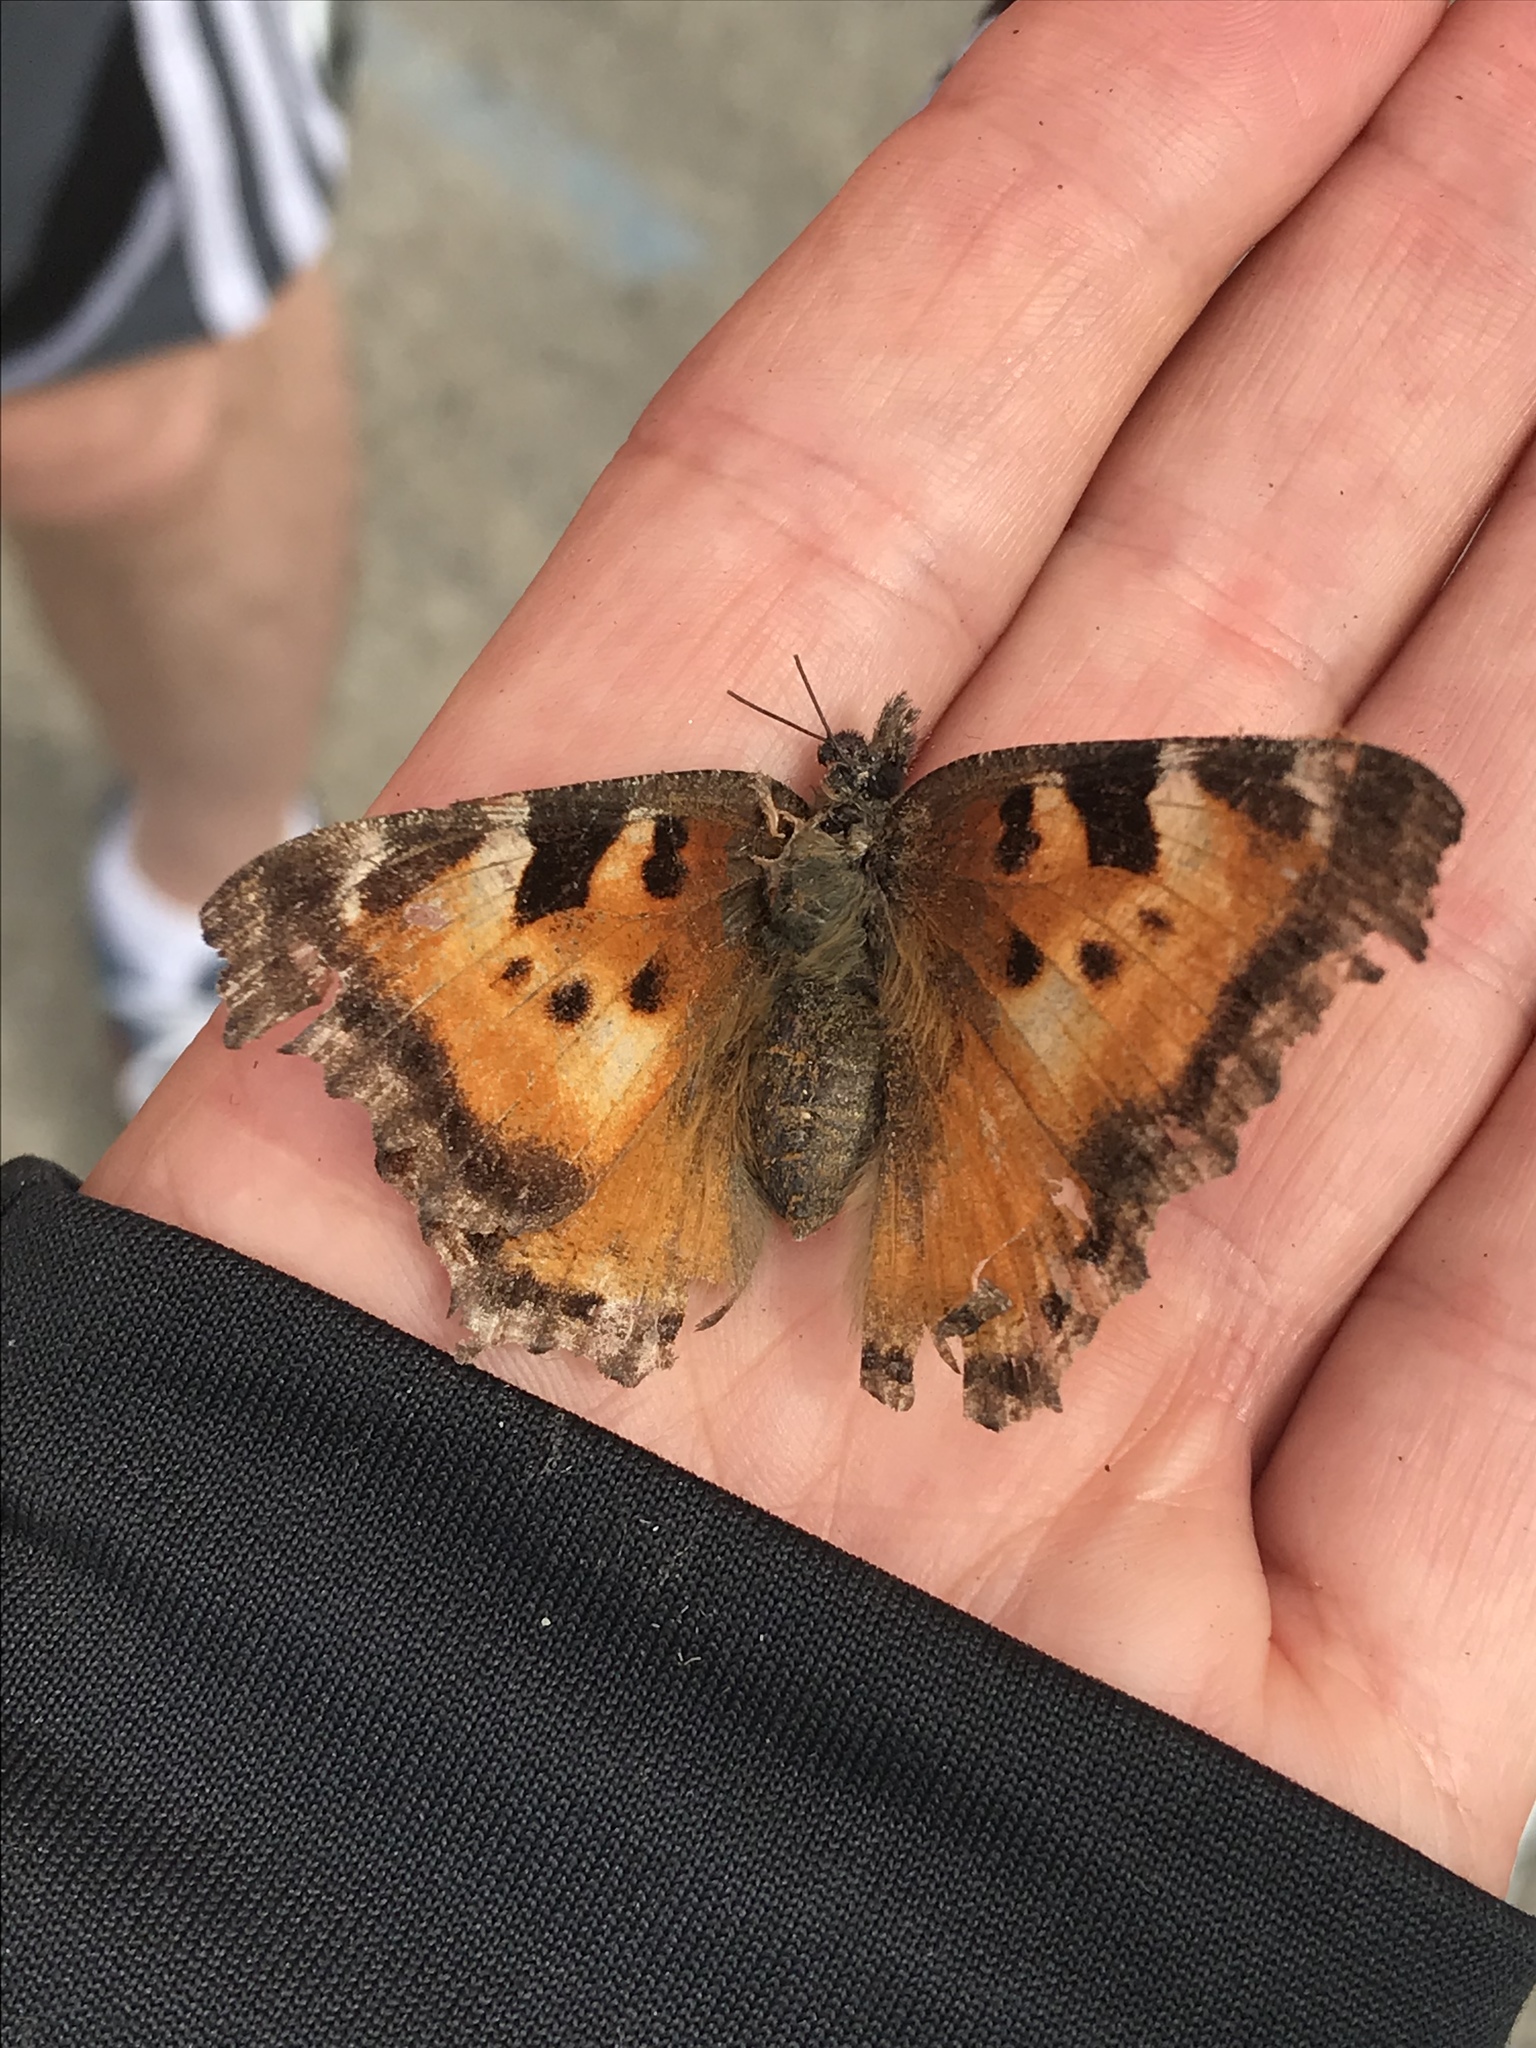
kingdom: Animalia
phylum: Arthropoda
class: Insecta
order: Lepidoptera
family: Nymphalidae
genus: Nymphalis
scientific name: Nymphalis californica
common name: California tortoiseshell
